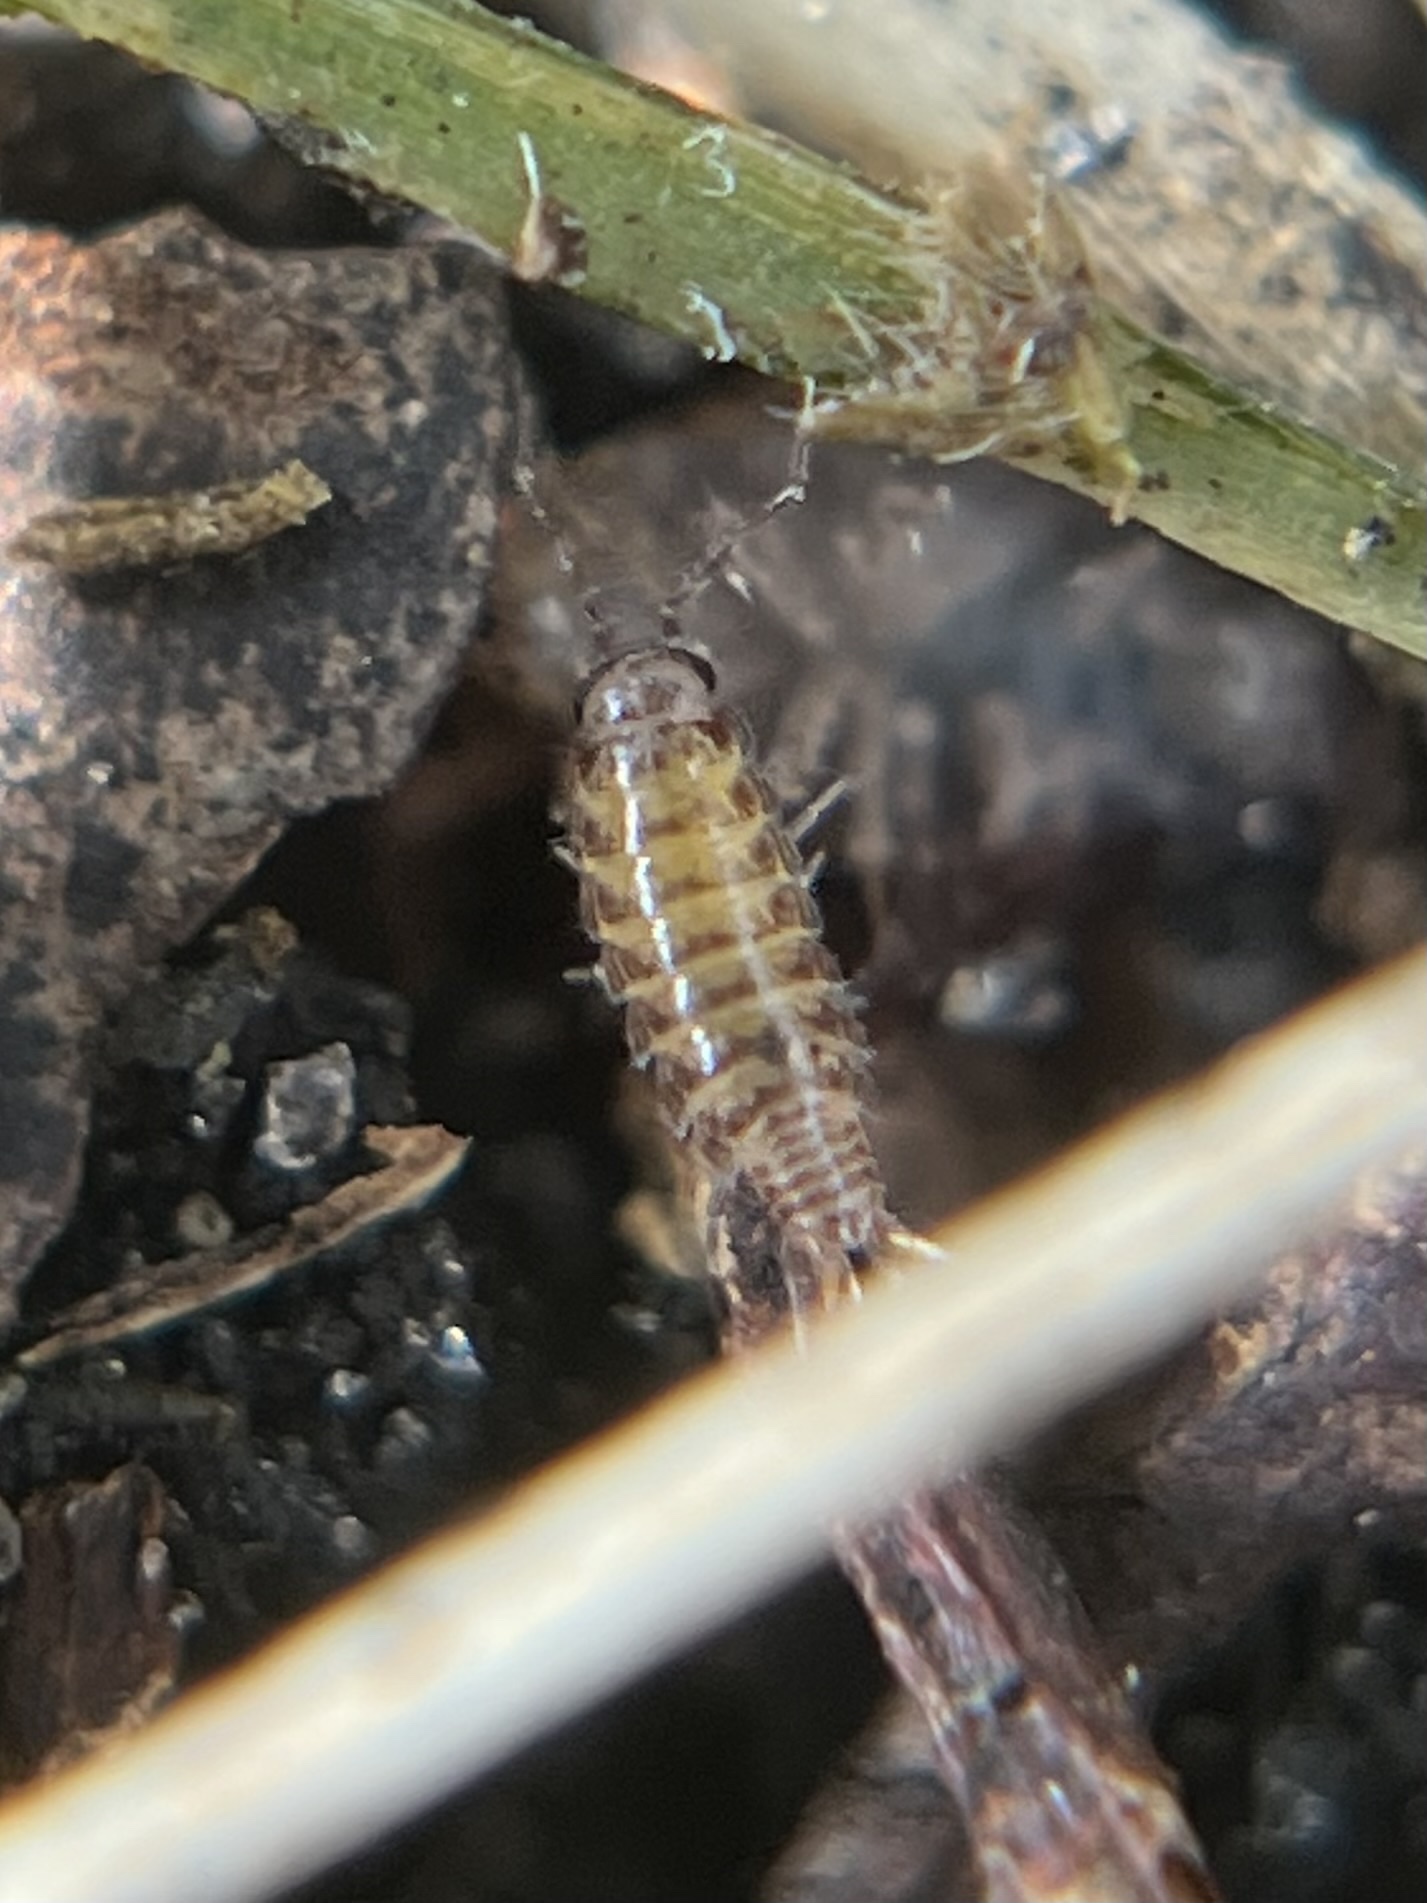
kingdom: Animalia
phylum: Arthropoda
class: Malacostraca
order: Isopoda
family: Philosciidae
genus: Atlantoscia
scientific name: Atlantoscia floridana
